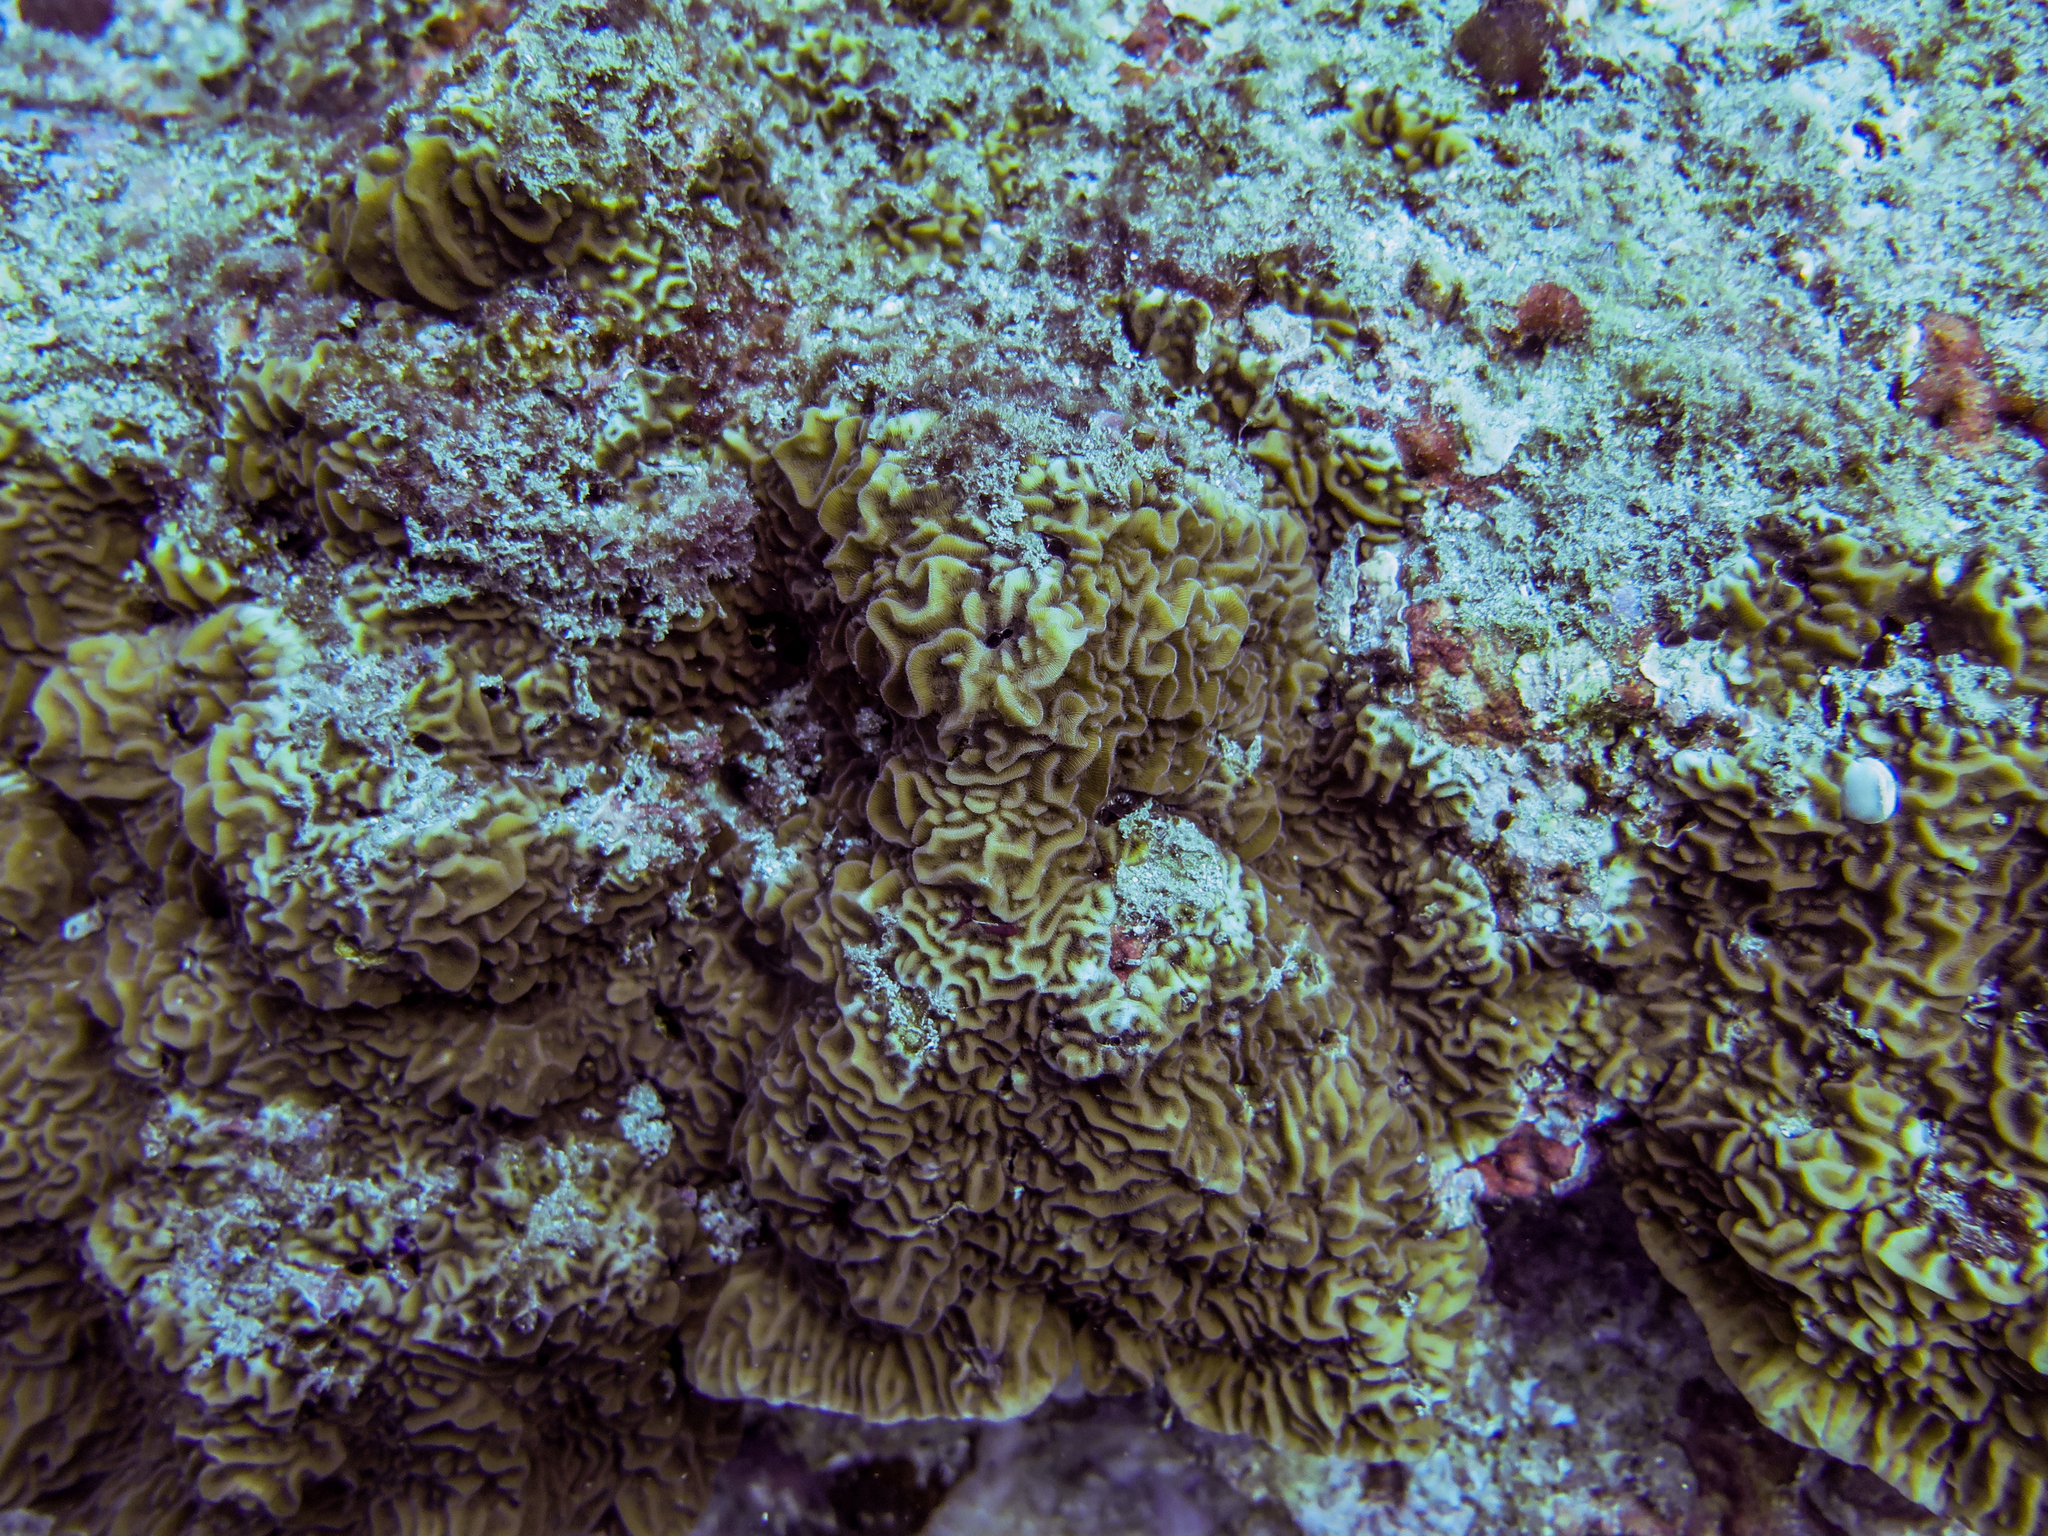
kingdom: Animalia
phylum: Cnidaria
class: Anthozoa
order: Scleractinia
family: Agariciidae
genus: Pavona
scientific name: Pavona varians
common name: Leaf coral
